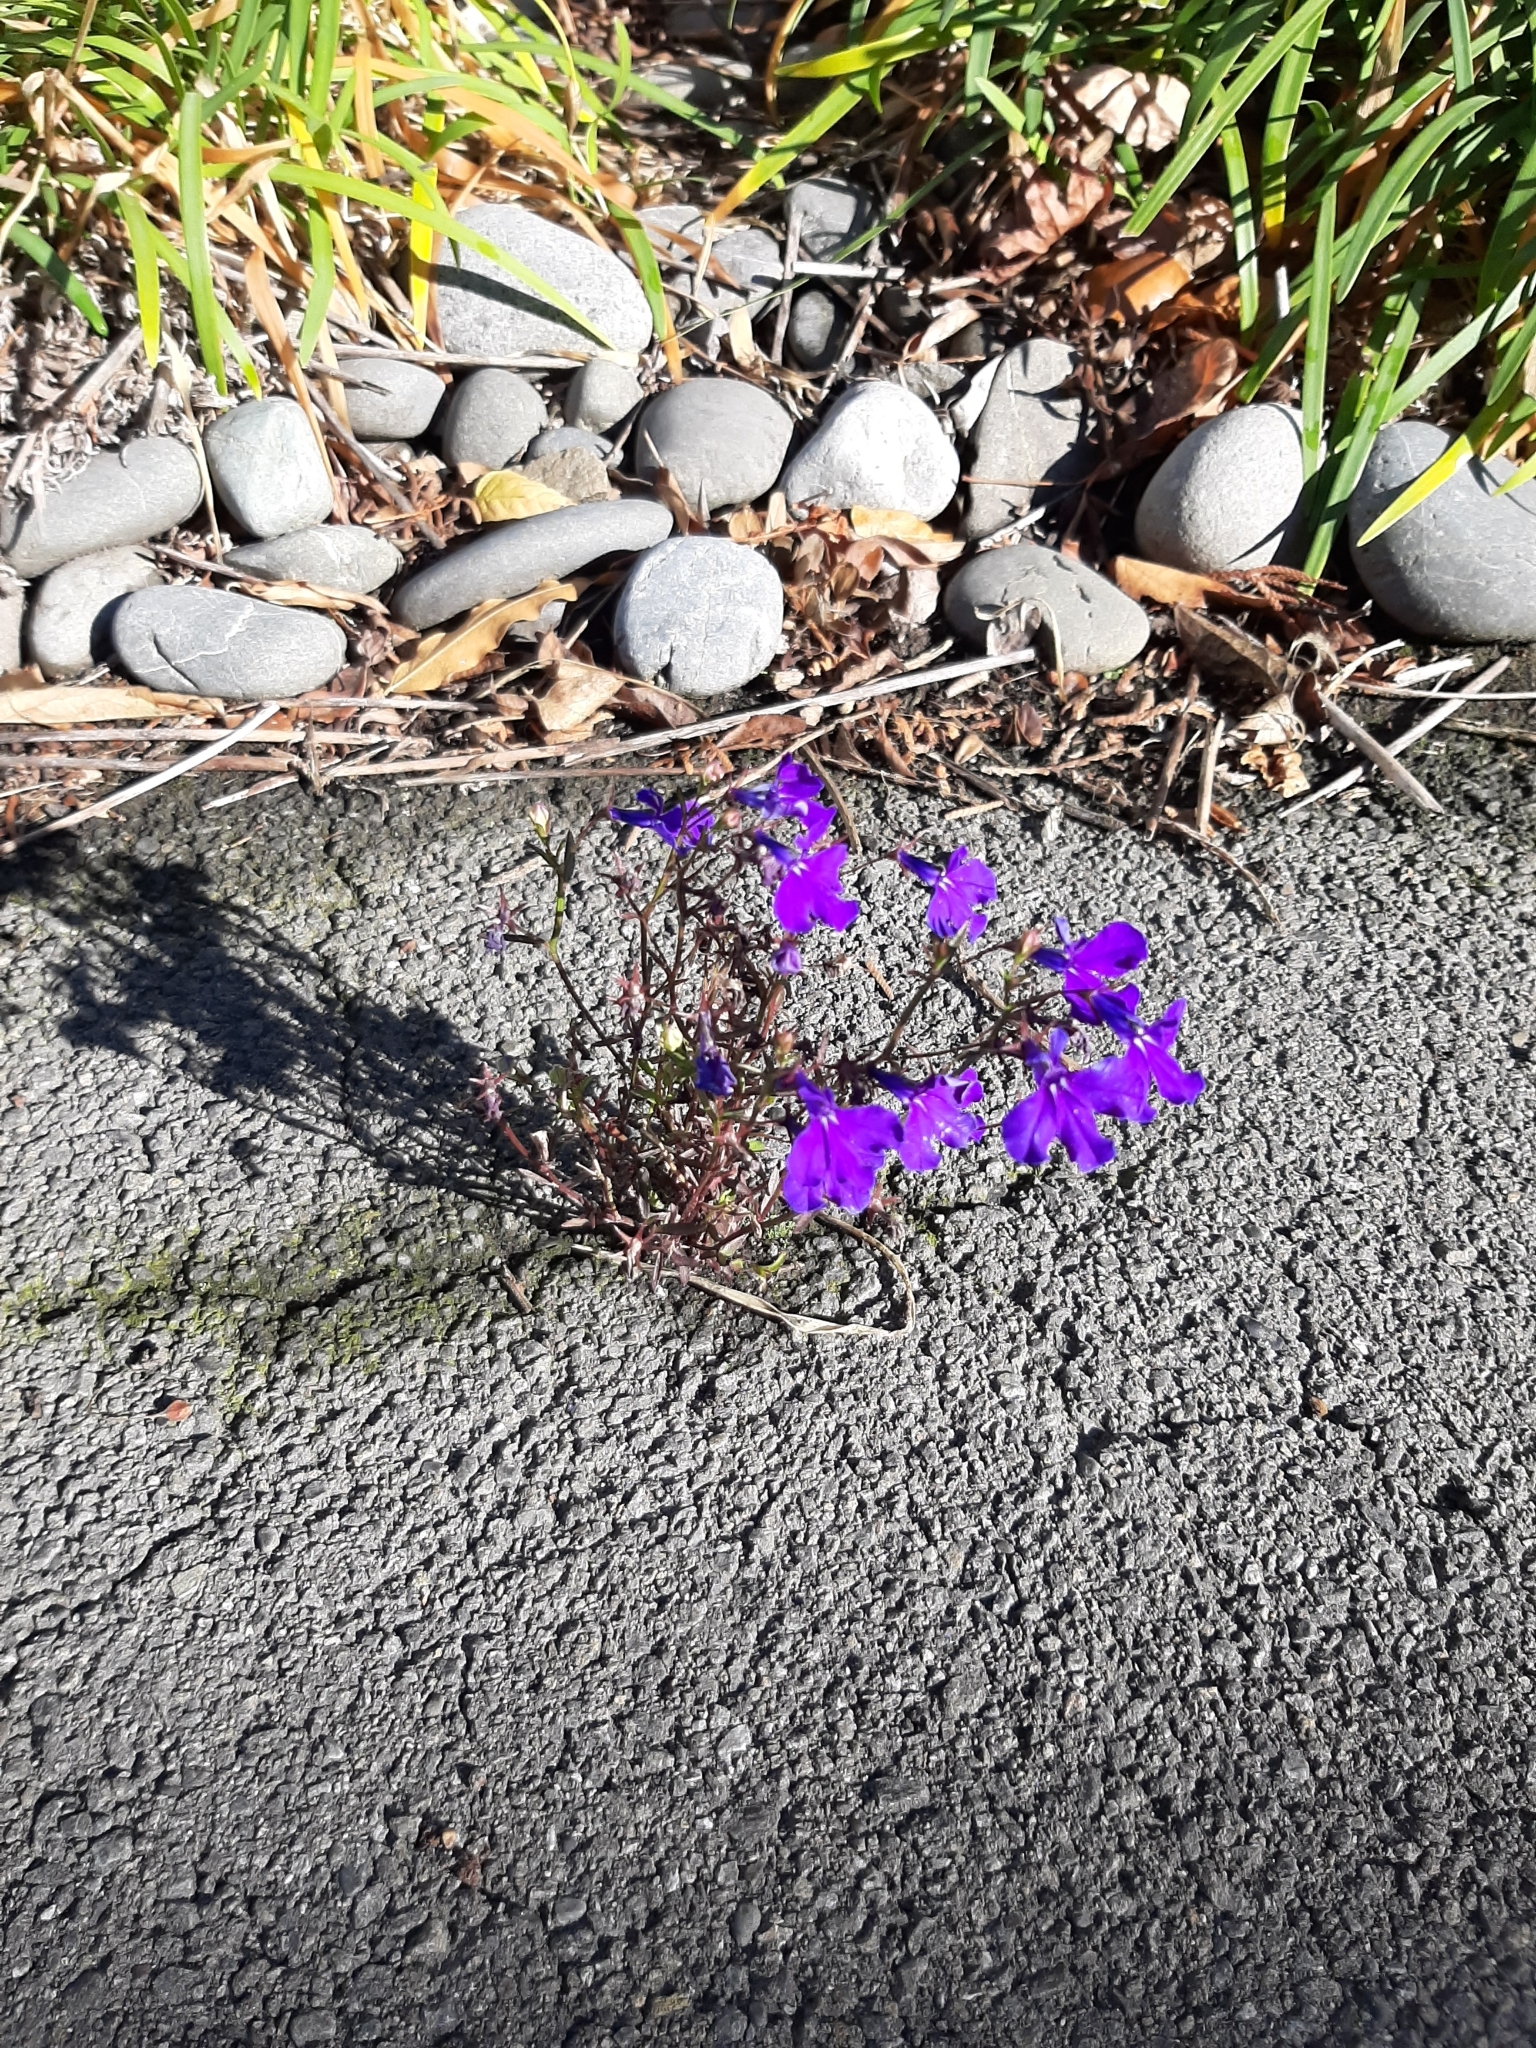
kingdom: Plantae
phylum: Tracheophyta
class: Magnoliopsida
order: Asterales
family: Campanulaceae
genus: Lobelia
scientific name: Lobelia erinus
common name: Edging lobelia
